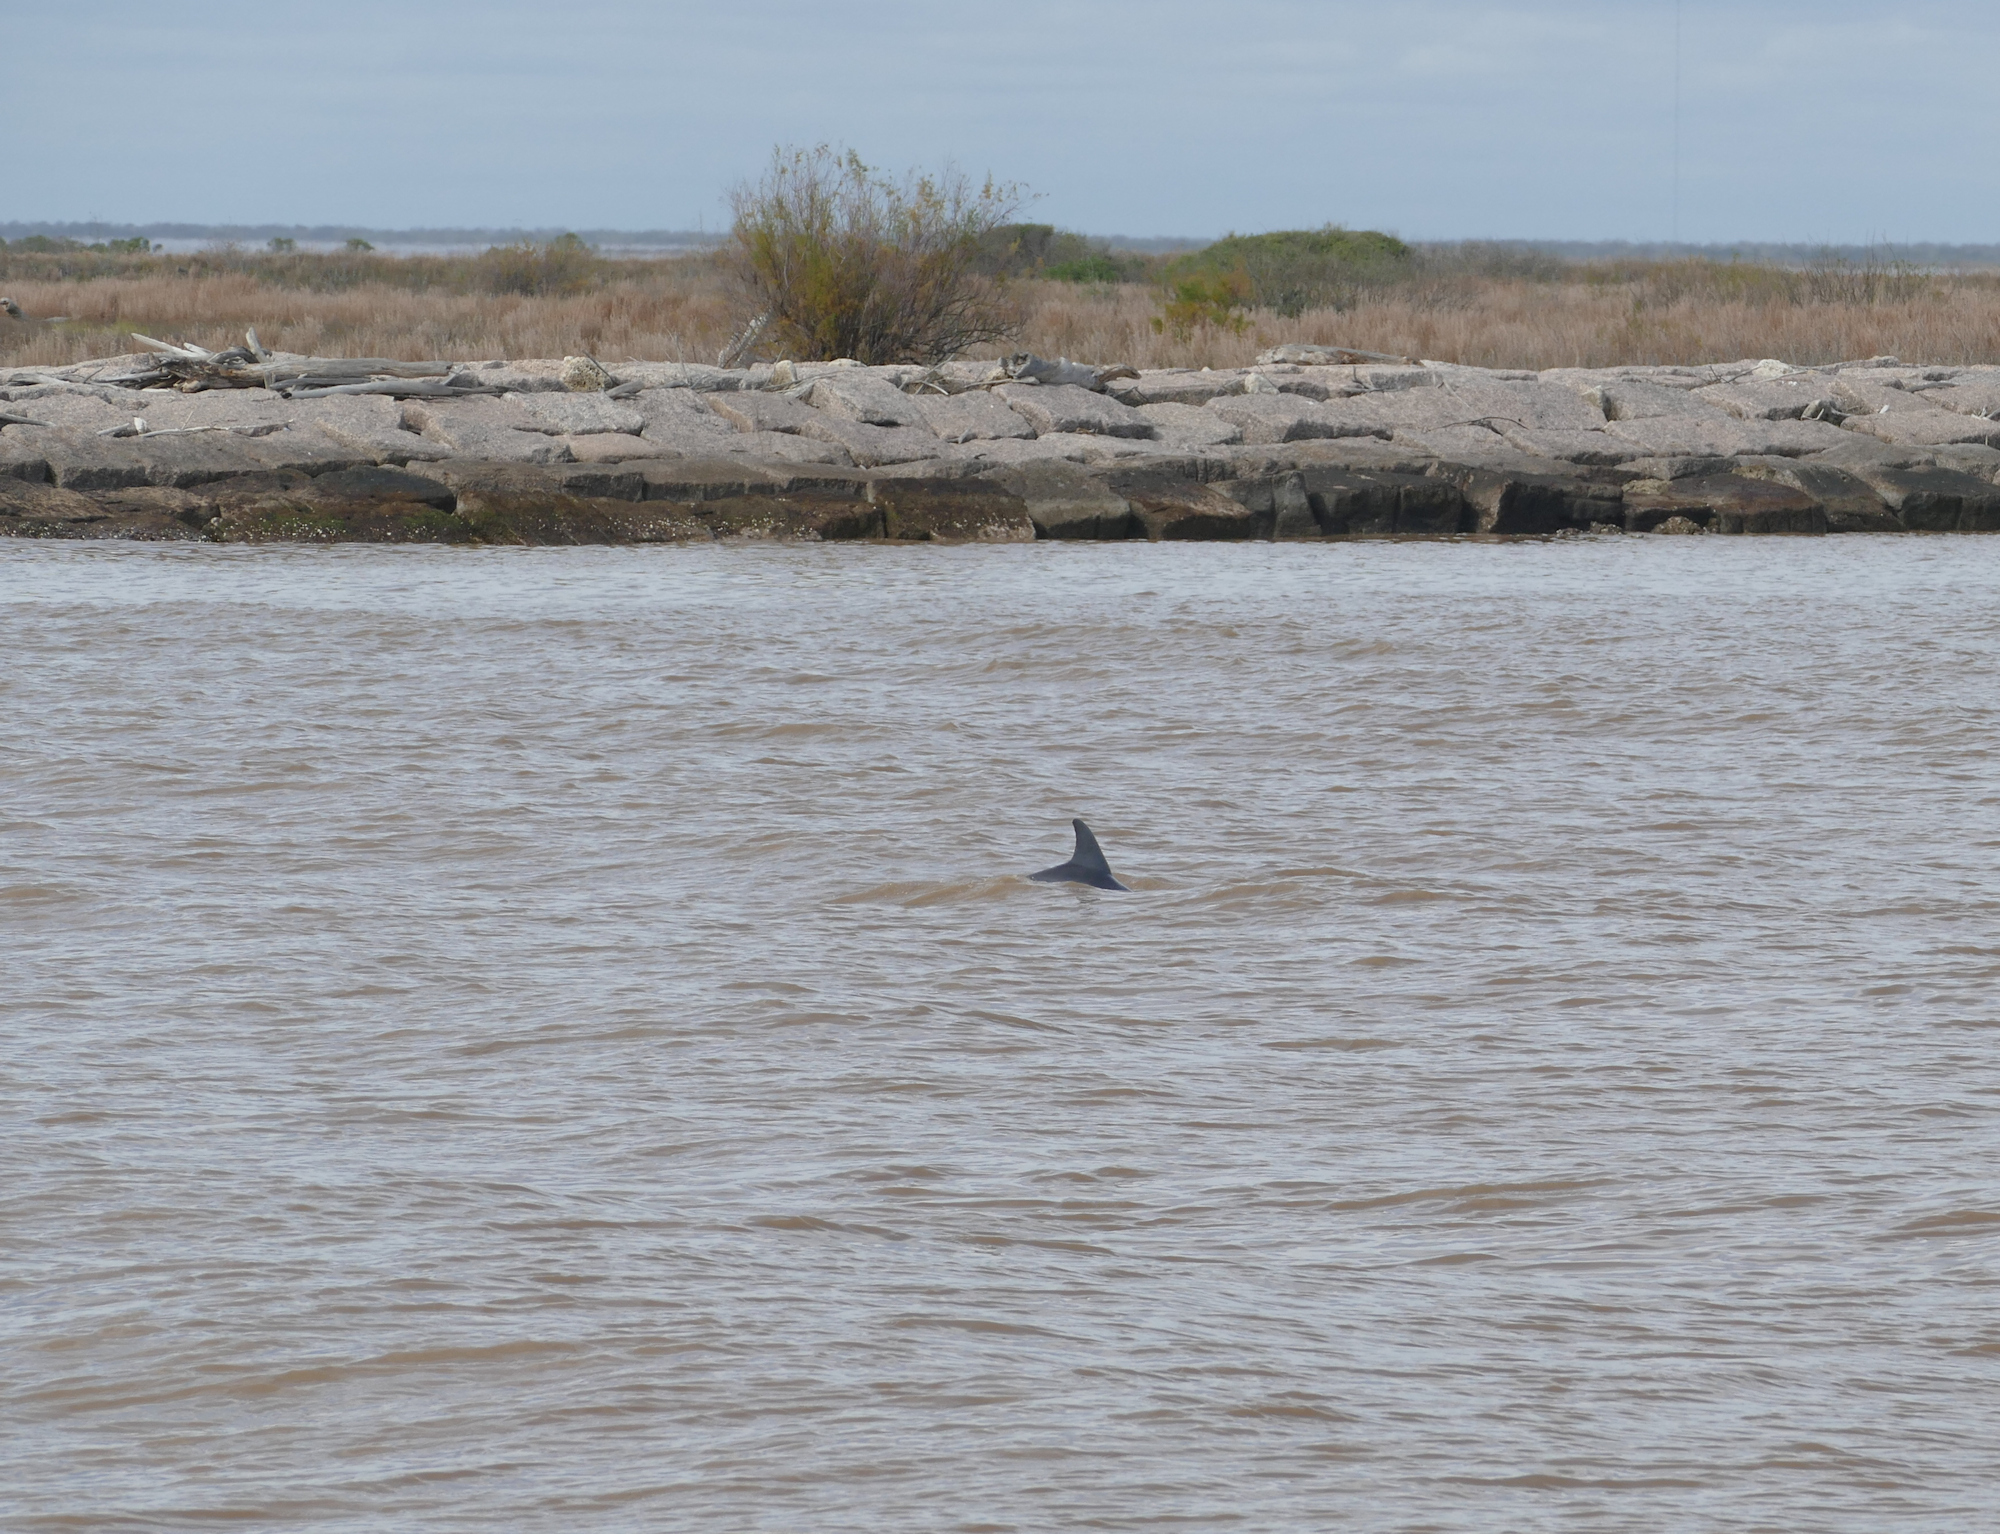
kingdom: Animalia
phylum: Chordata
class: Mammalia
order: Cetacea
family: Delphinidae
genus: Tursiops
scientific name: Tursiops truncatus
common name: Bottlenose dolphin
